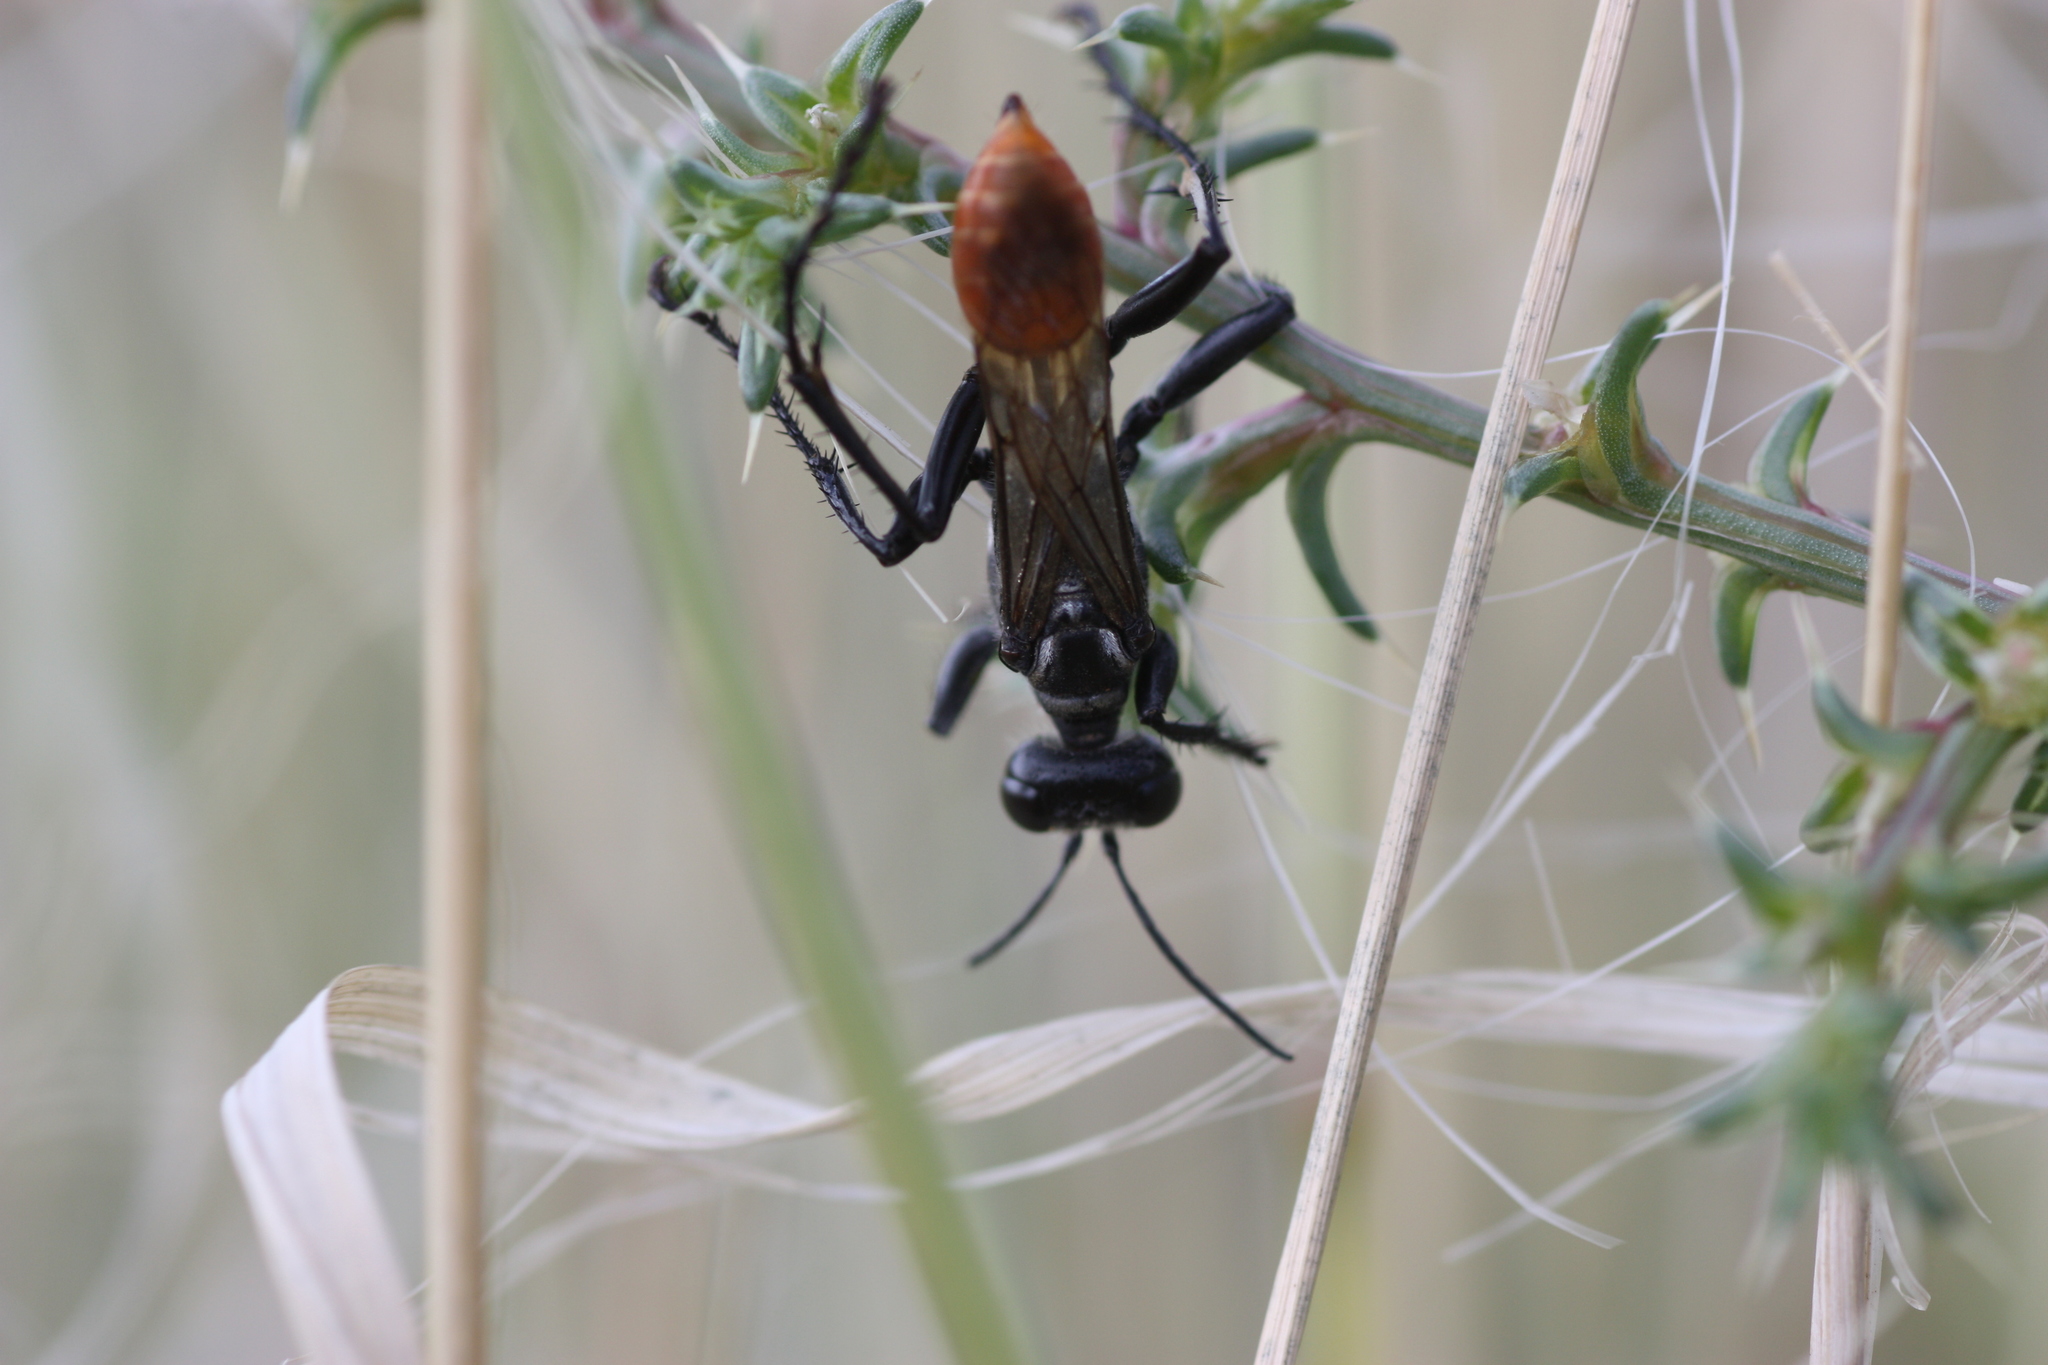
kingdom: Animalia
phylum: Arthropoda
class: Insecta
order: Hymenoptera
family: Sphecidae
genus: Prionyx
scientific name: Prionyx
